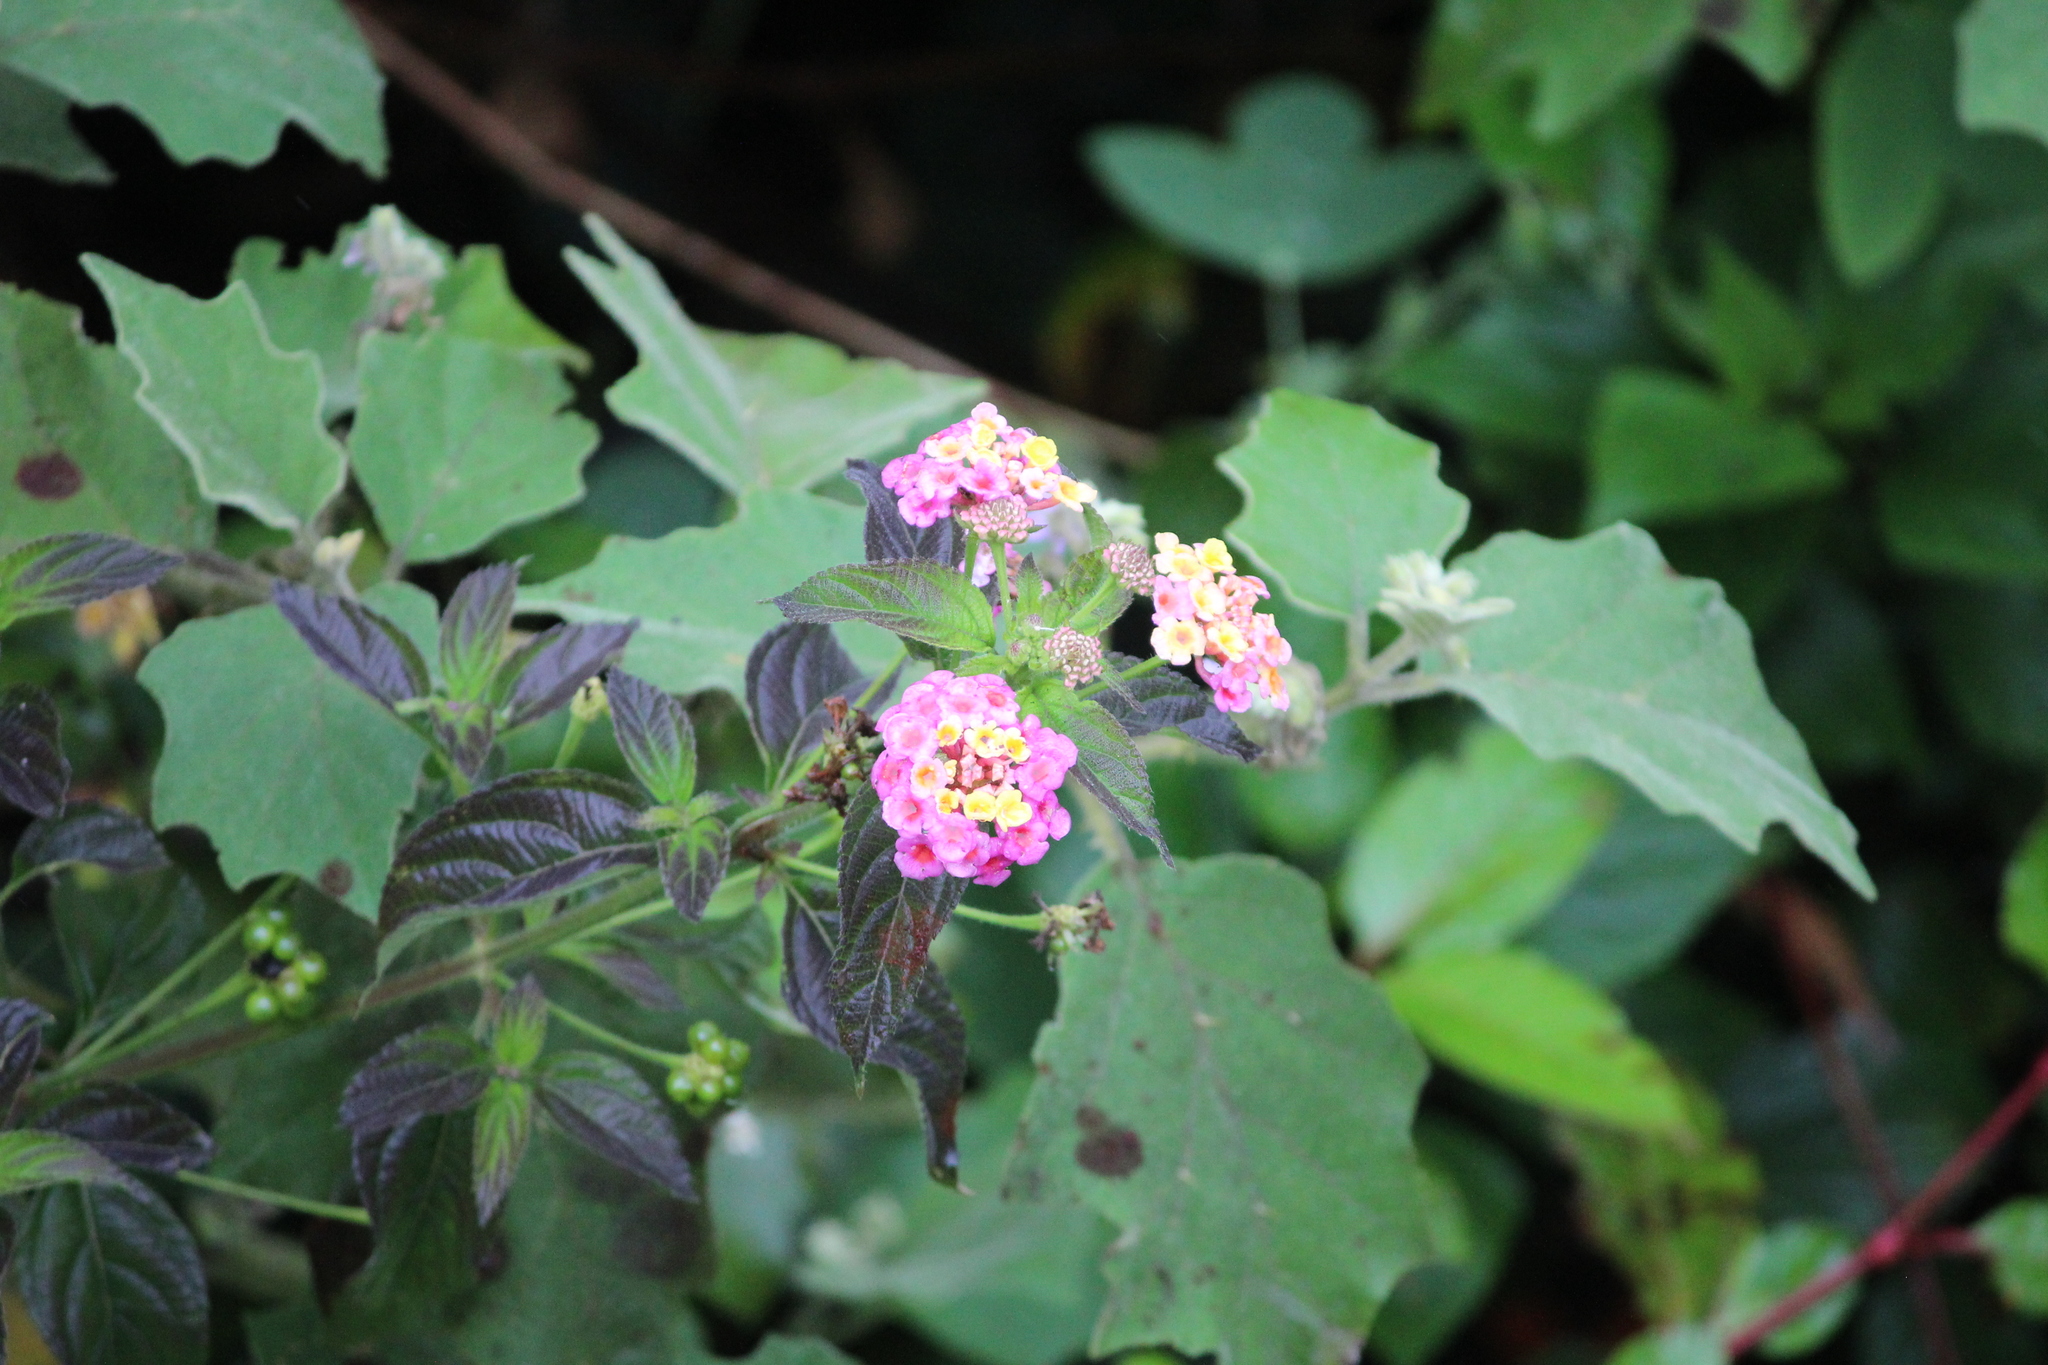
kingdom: Plantae
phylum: Tracheophyta
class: Magnoliopsida
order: Lamiales
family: Verbenaceae
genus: Lantana
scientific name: Lantana camara
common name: Lantana
